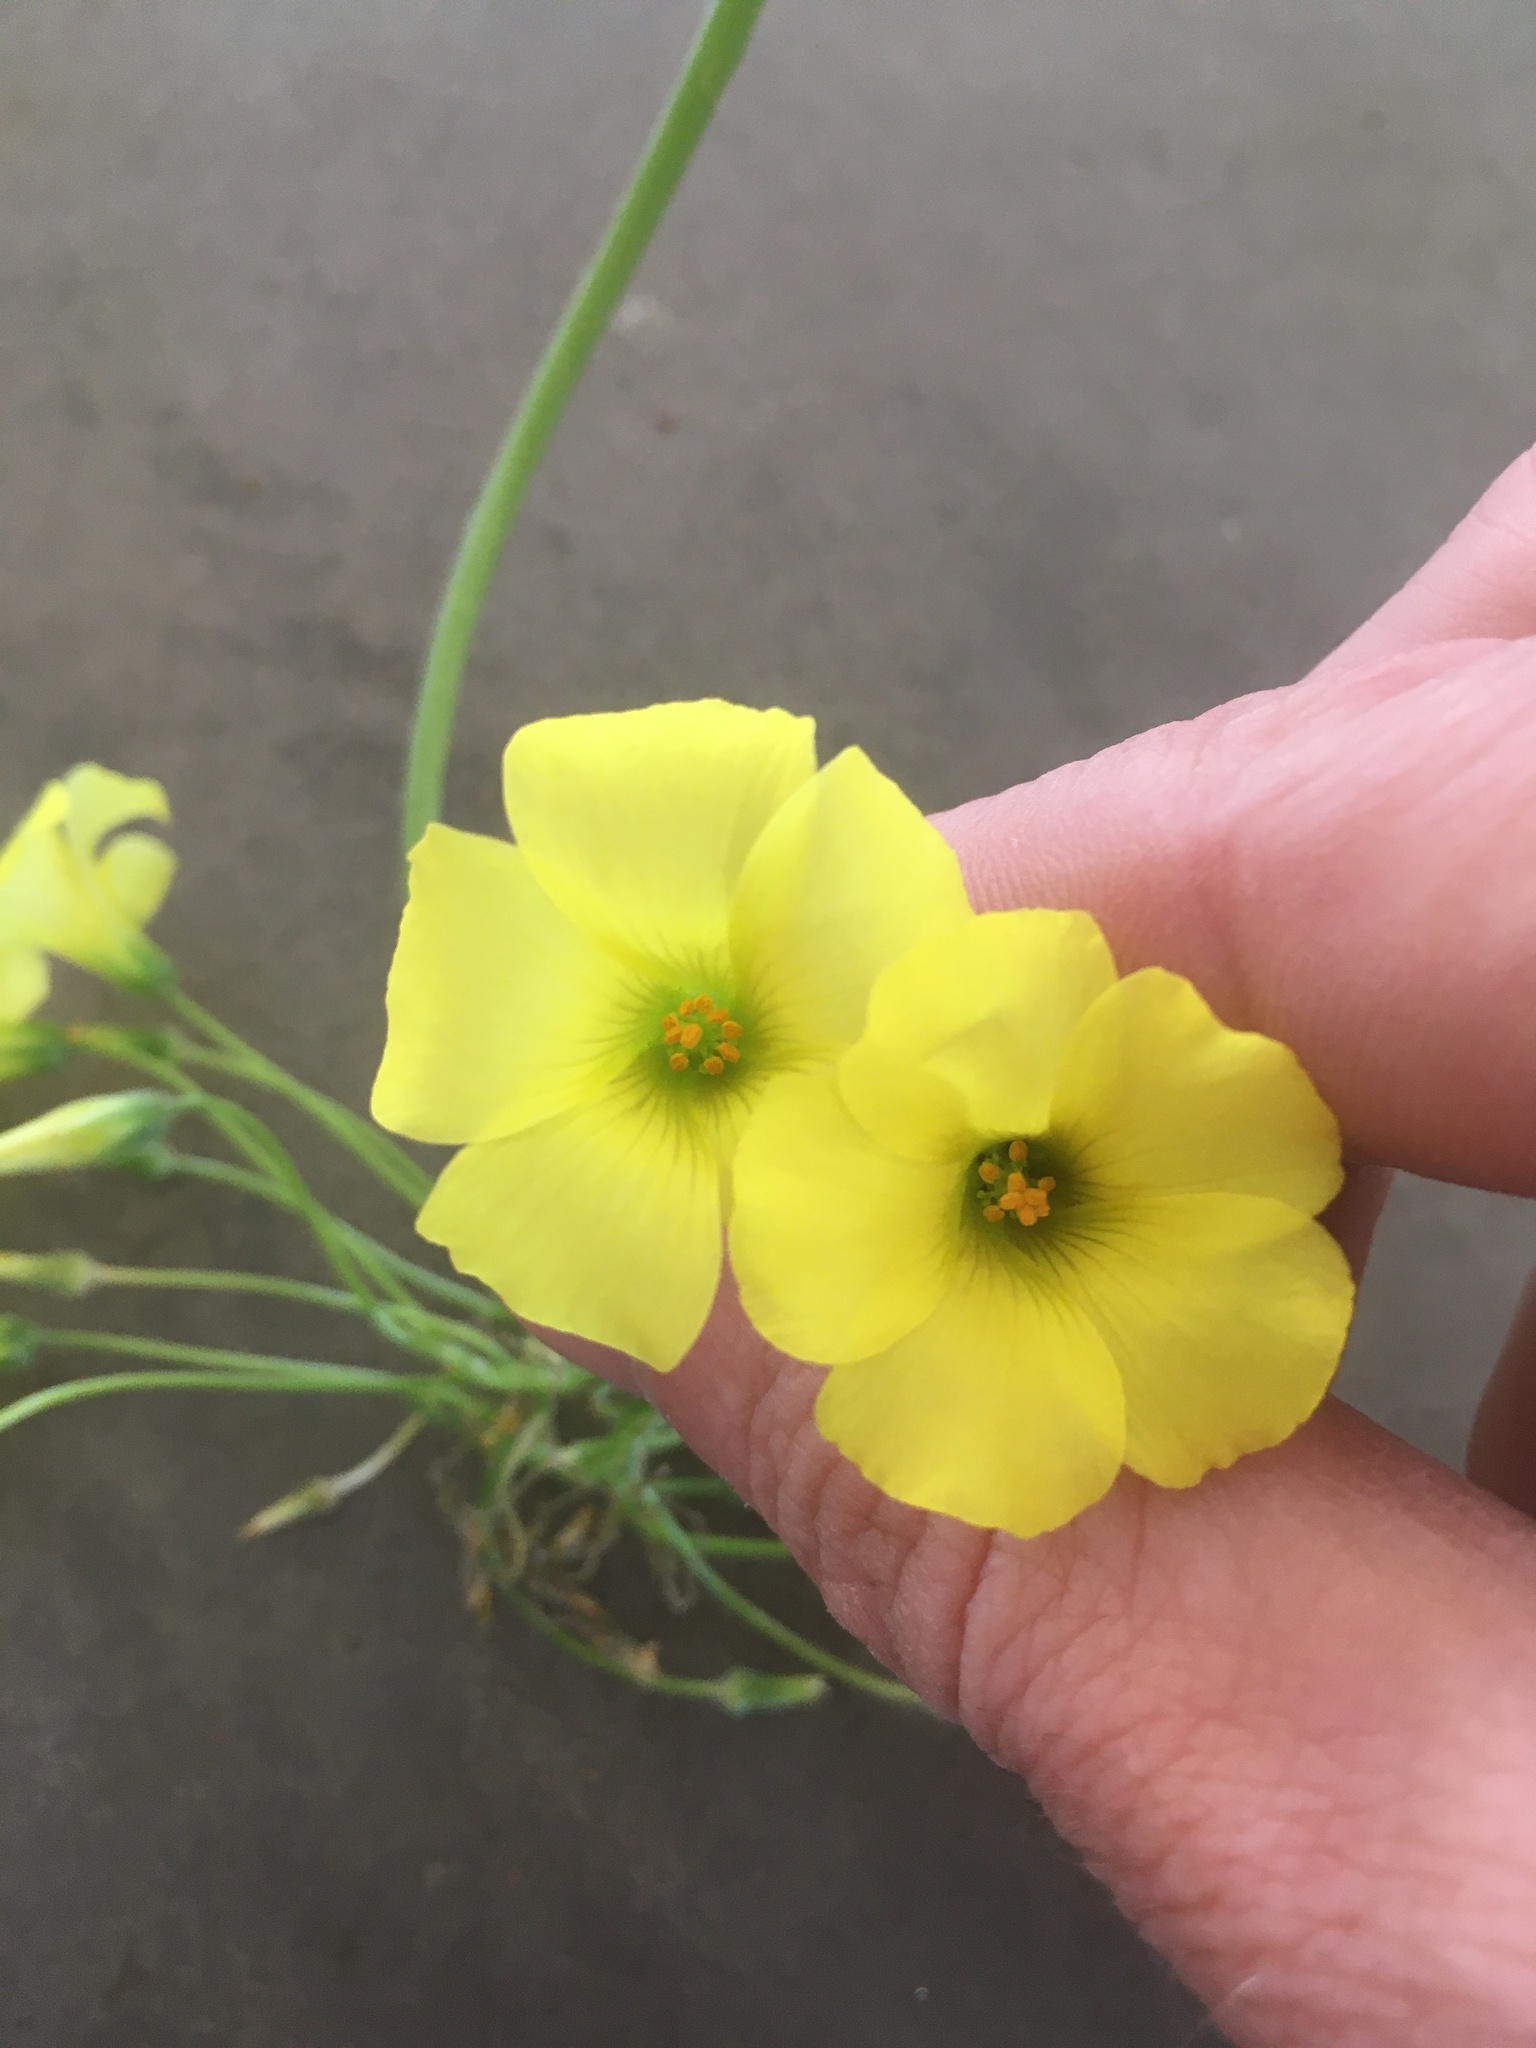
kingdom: Plantae
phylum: Tracheophyta
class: Magnoliopsida
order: Oxalidales
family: Oxalidaceae
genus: Oxalis
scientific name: Oxalis pes-caprae
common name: Bermuda-buttercup
